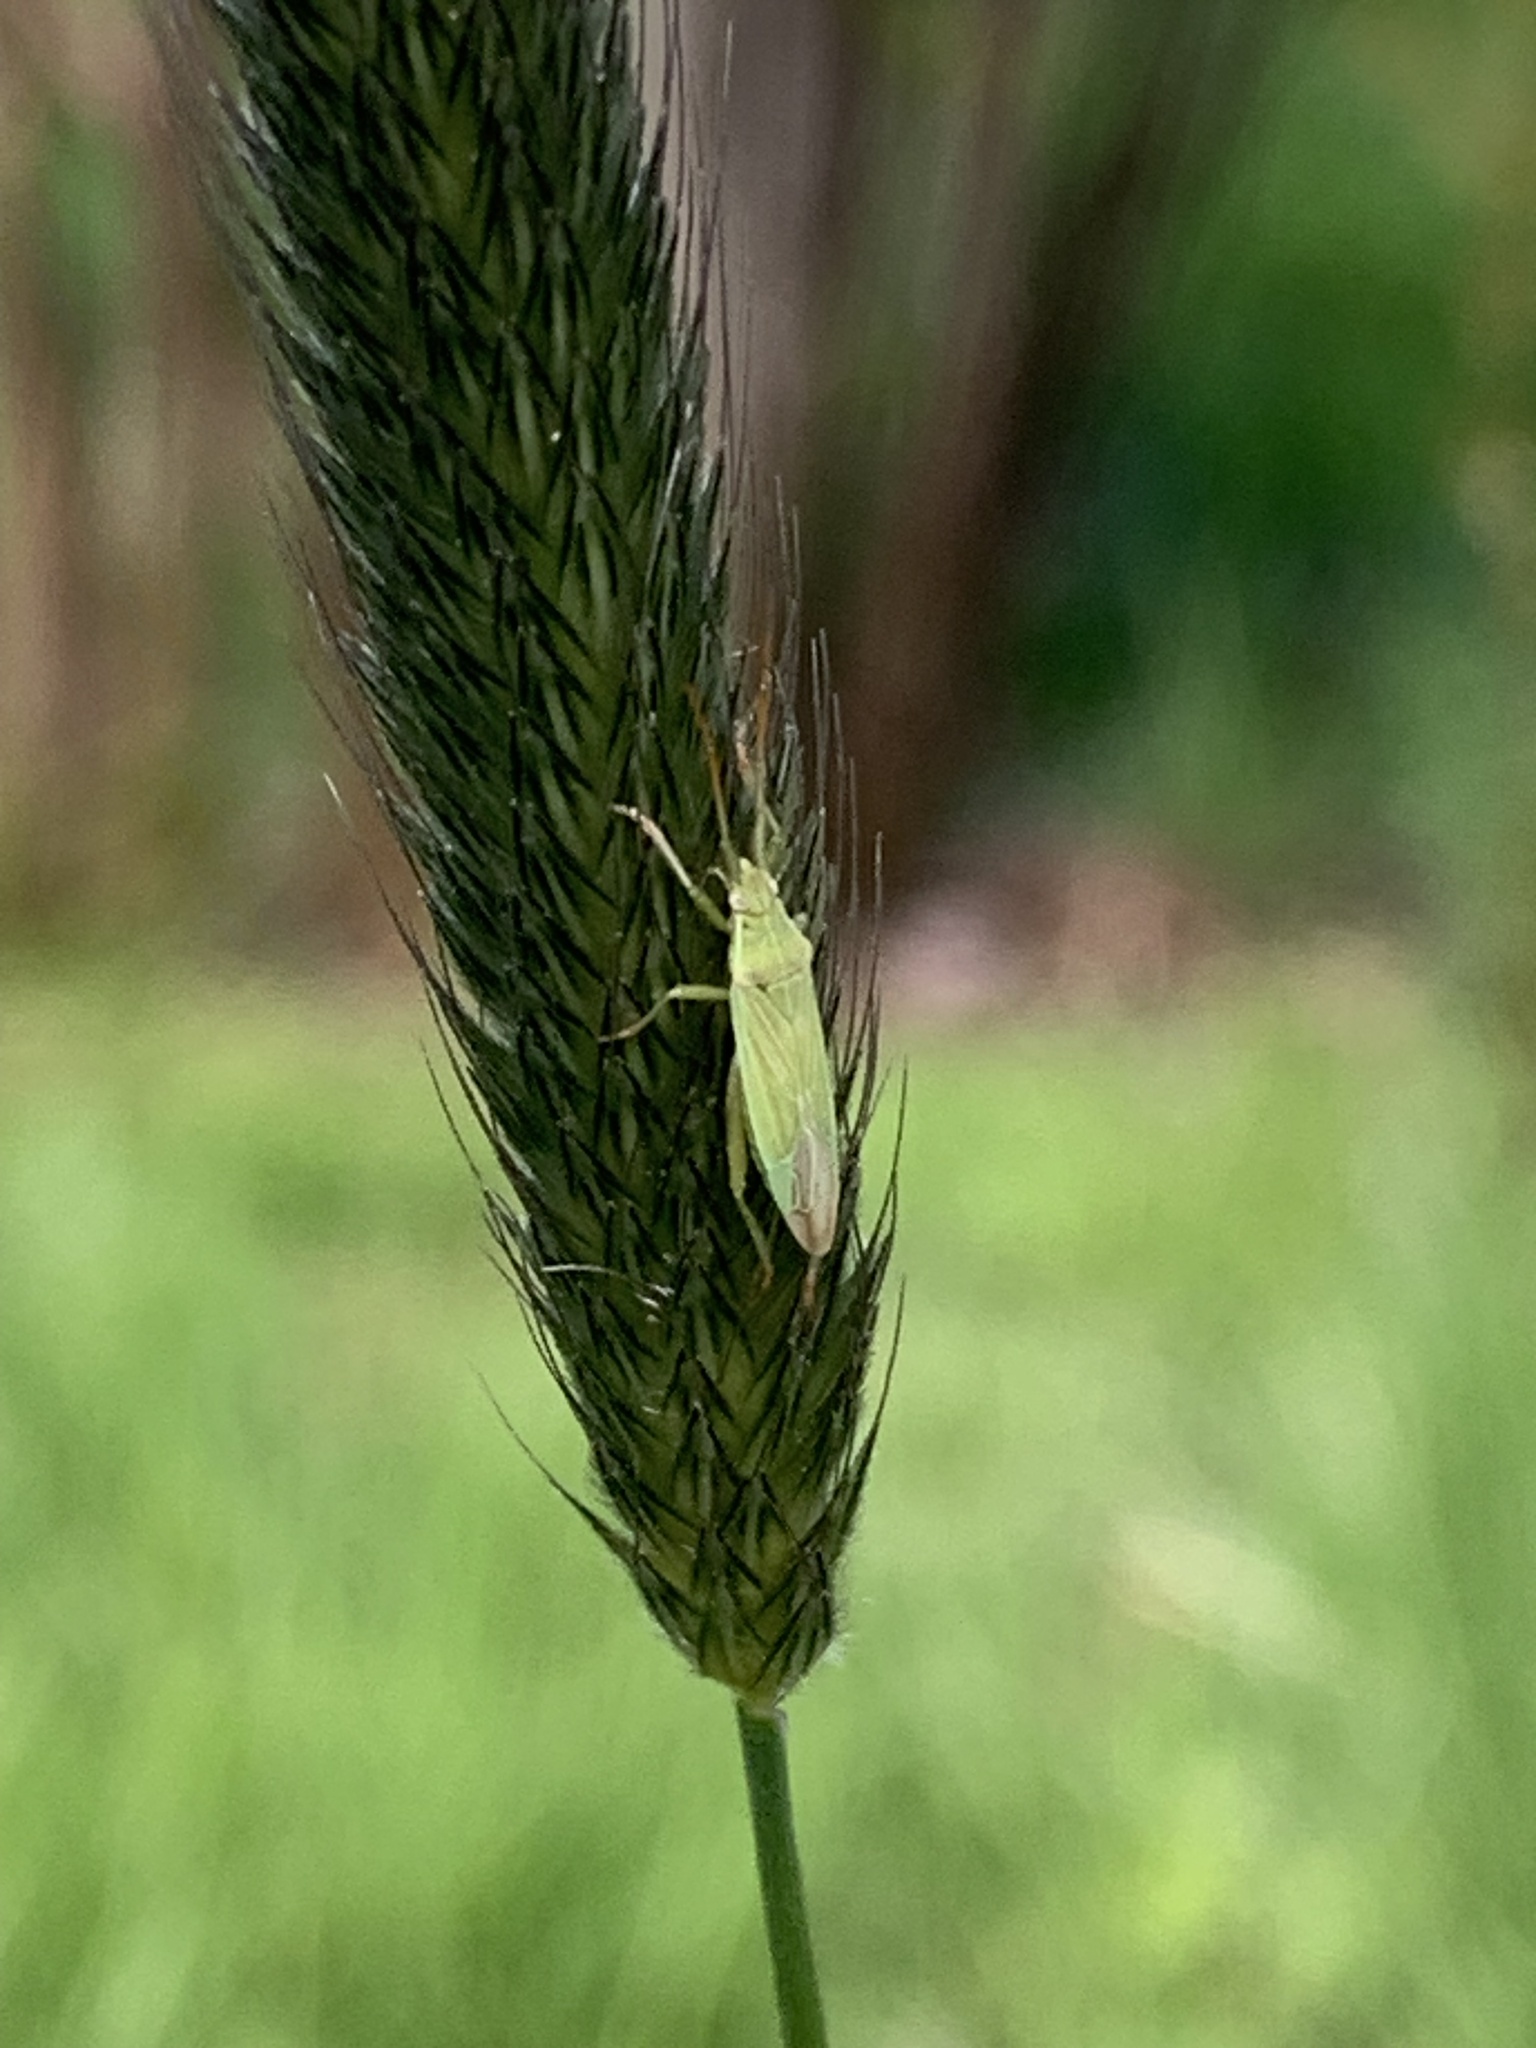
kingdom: Animalia
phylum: Arthropoda
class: Insecta
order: Hemiptera
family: Miridae
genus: Stenodema
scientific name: Stenodema calcarata
